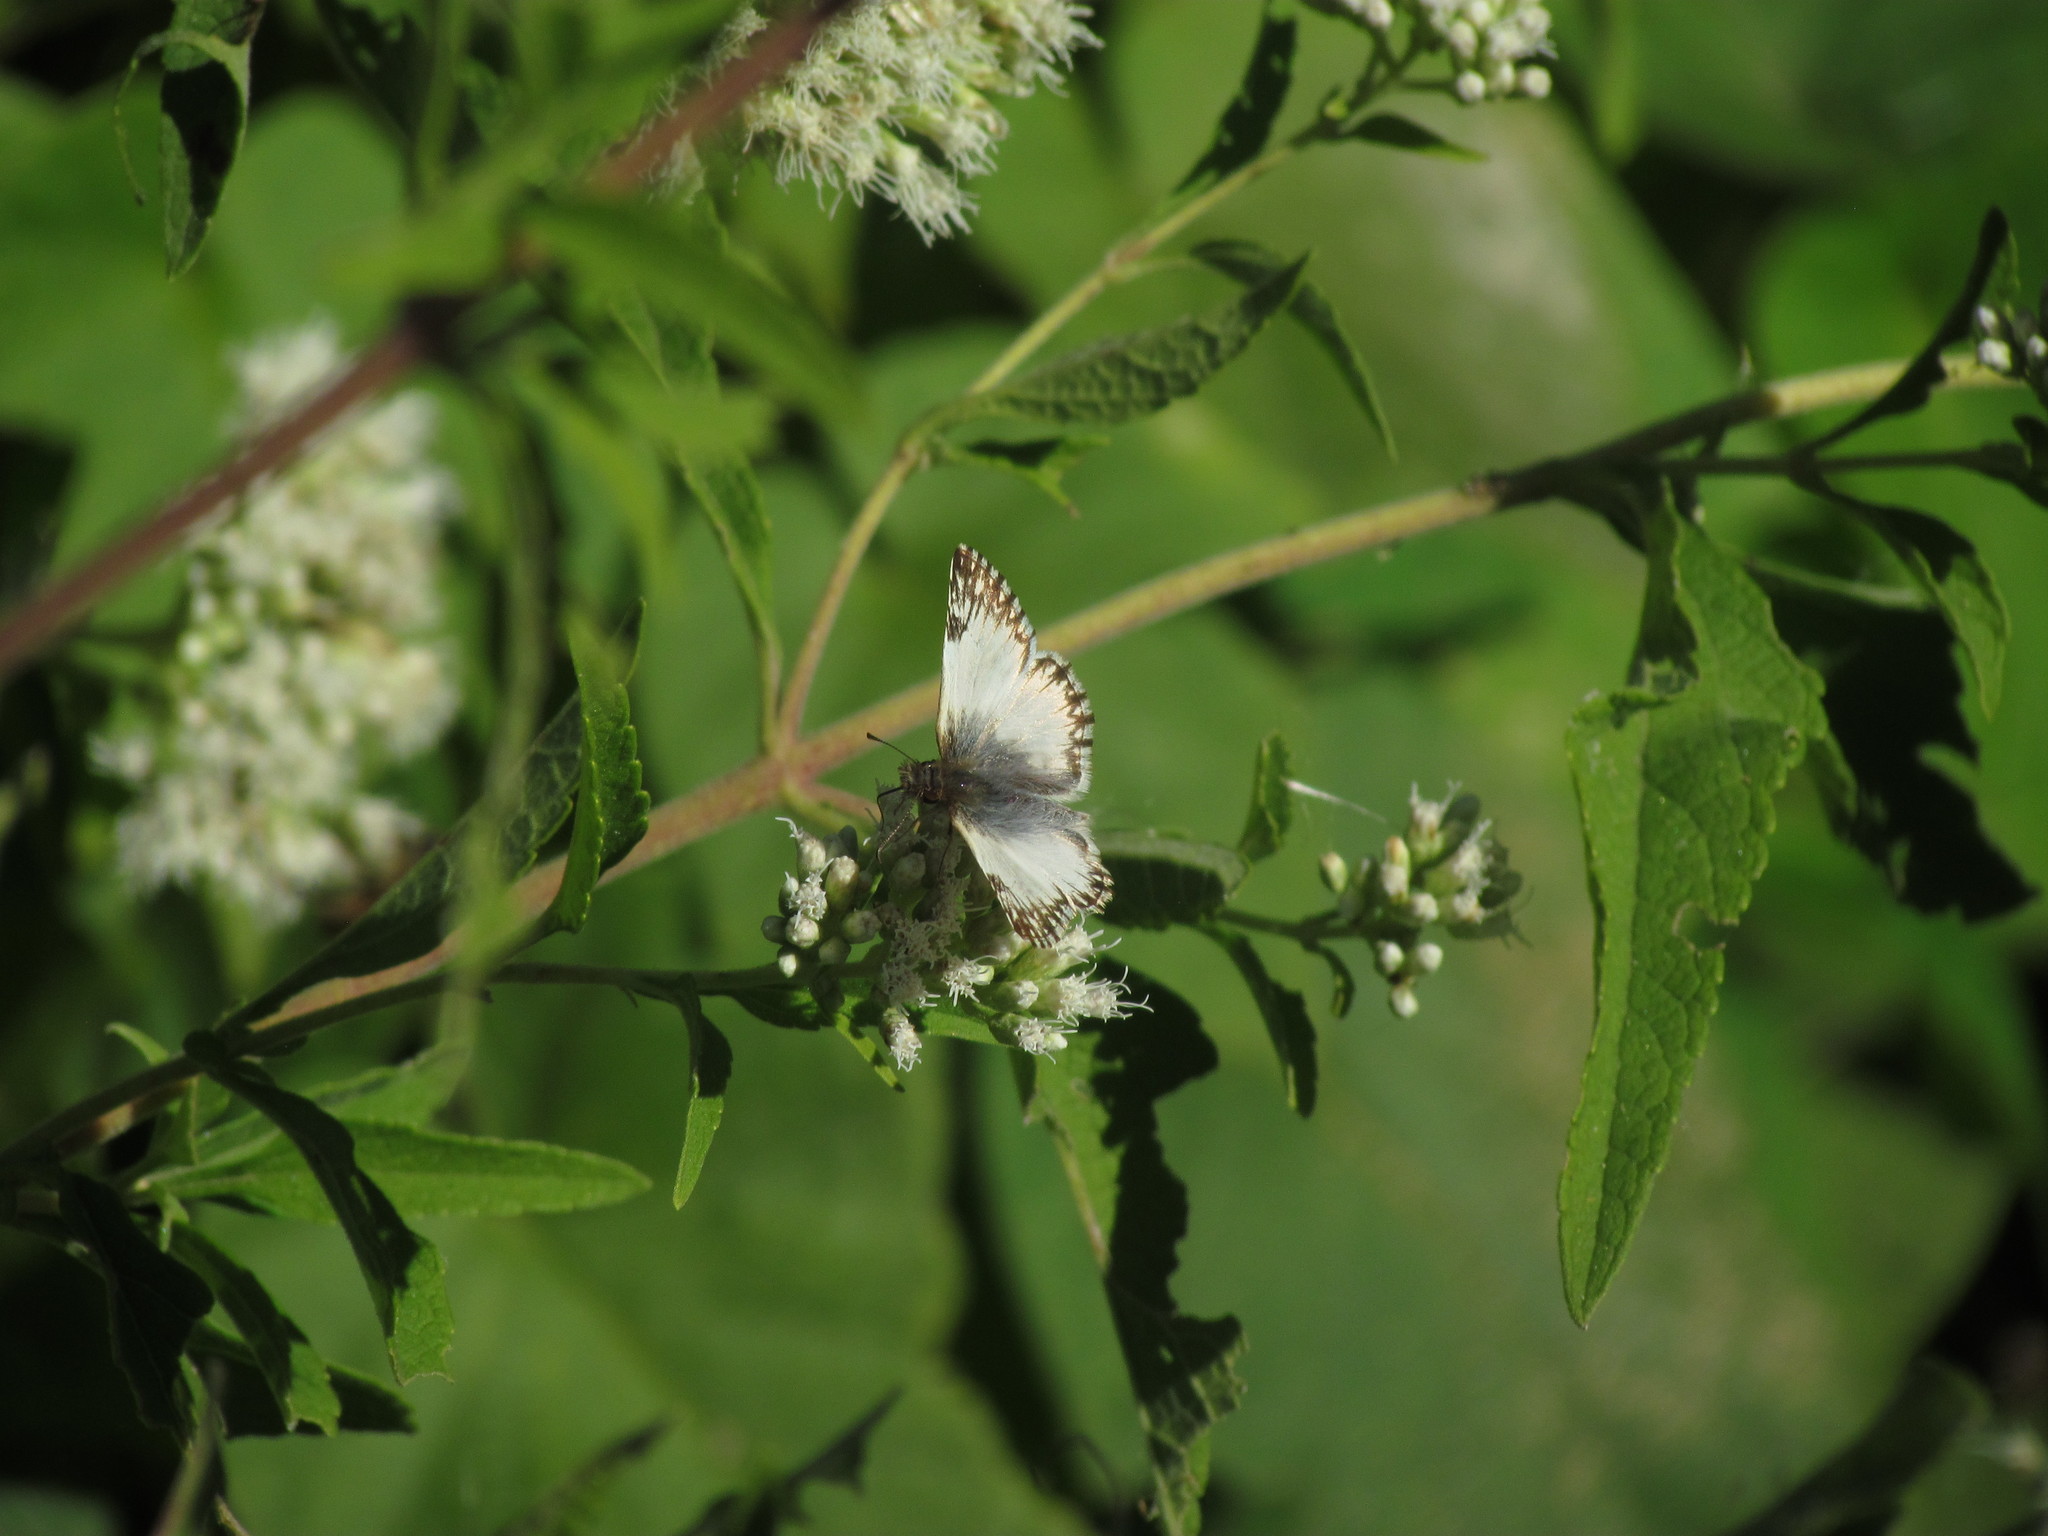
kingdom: Animalia
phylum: Arthropoda
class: Insecta
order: Lepidoptera
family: Hesperiidae
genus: Heliopetes
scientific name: Heliopetes omrina
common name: Stained white-skipper
